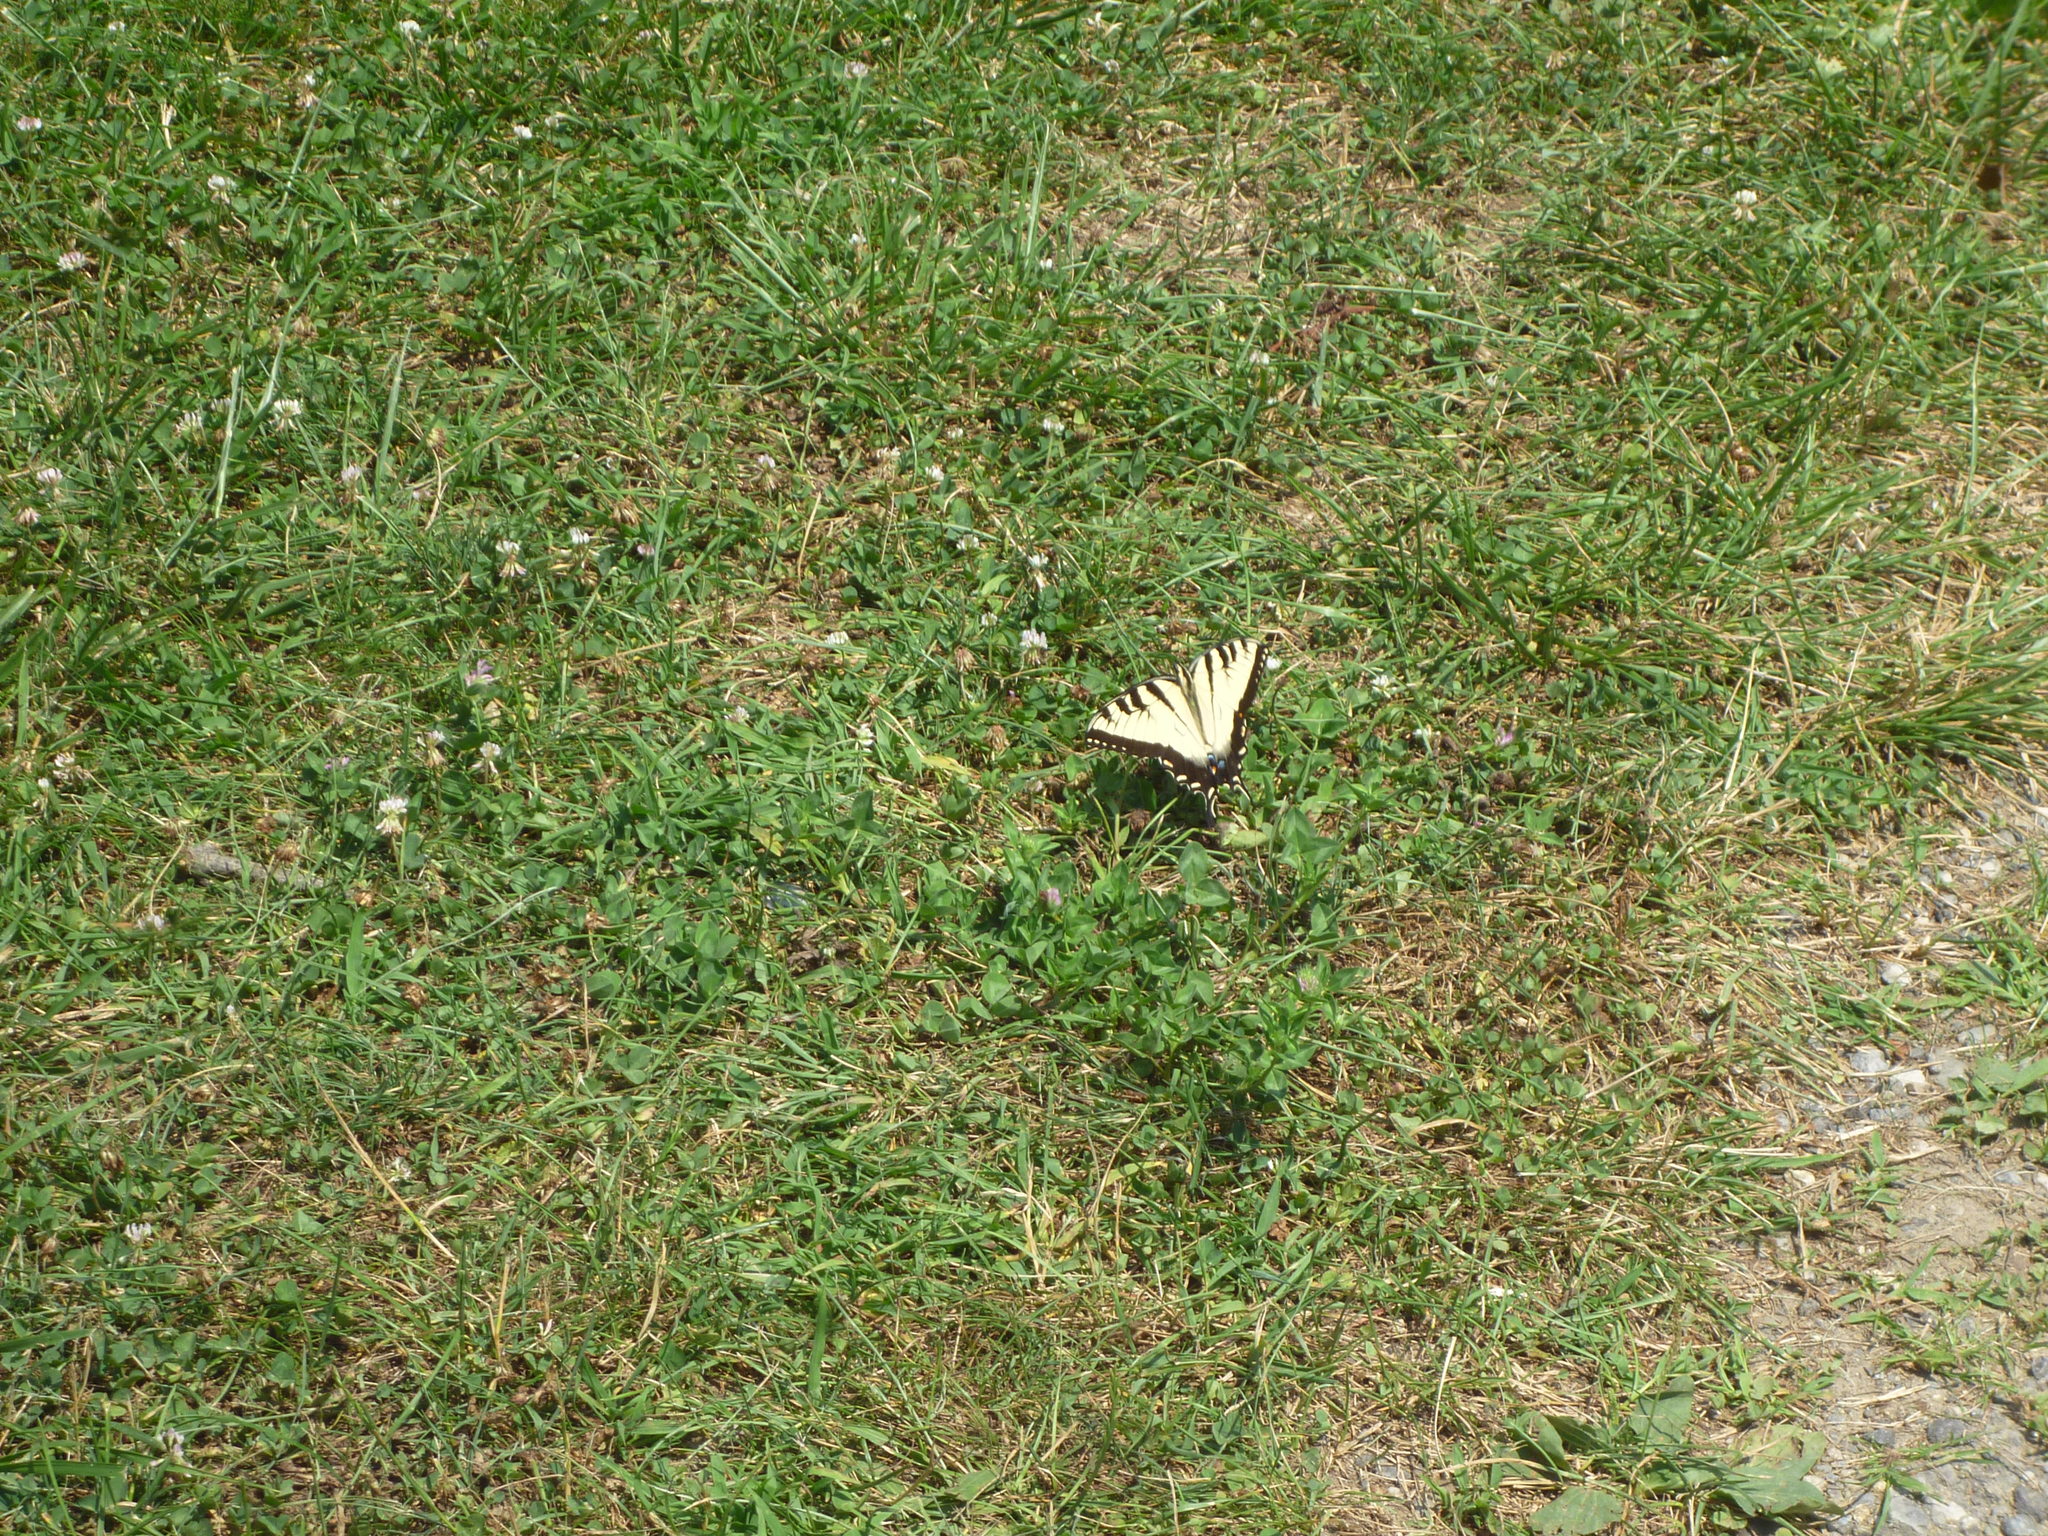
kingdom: Plantae
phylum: Tracheophyta
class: Magnoliopsida
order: Fabales
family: Fabaceae
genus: Trifolium
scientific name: Trifolium repens
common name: White clover
